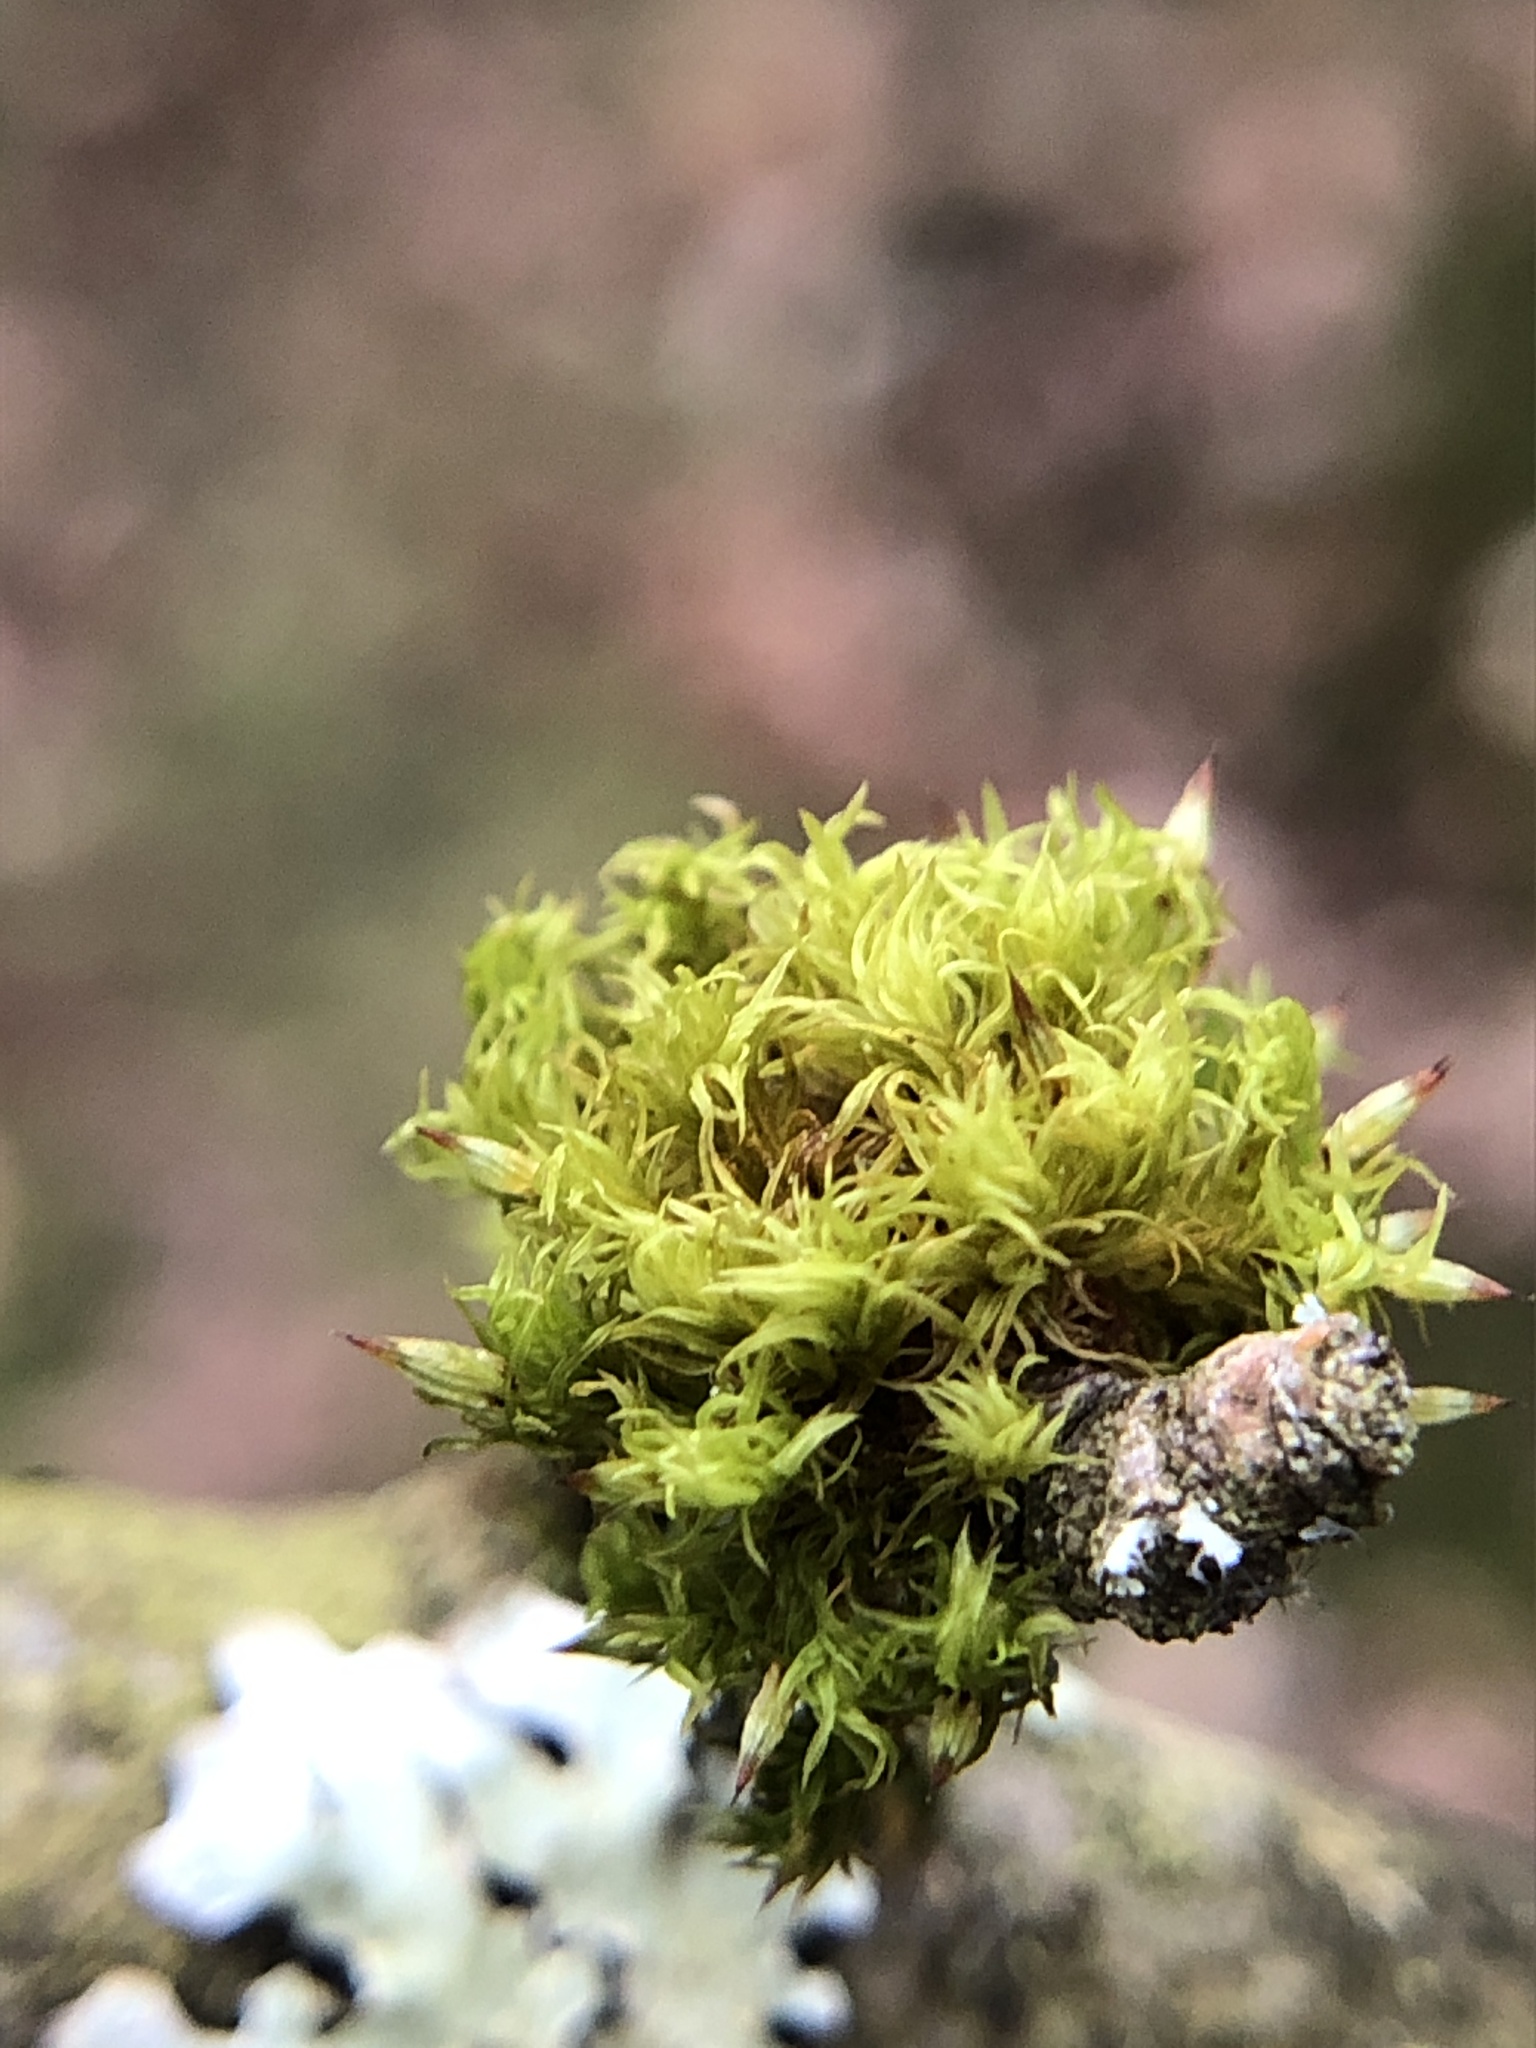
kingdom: Plantae
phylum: Bryophyta
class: Bryopsida
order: Orthotrichales
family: Orthotrichaceae
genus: Orthotrichum
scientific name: Orthotrichum pulchellum
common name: Elegant bristle-moss
